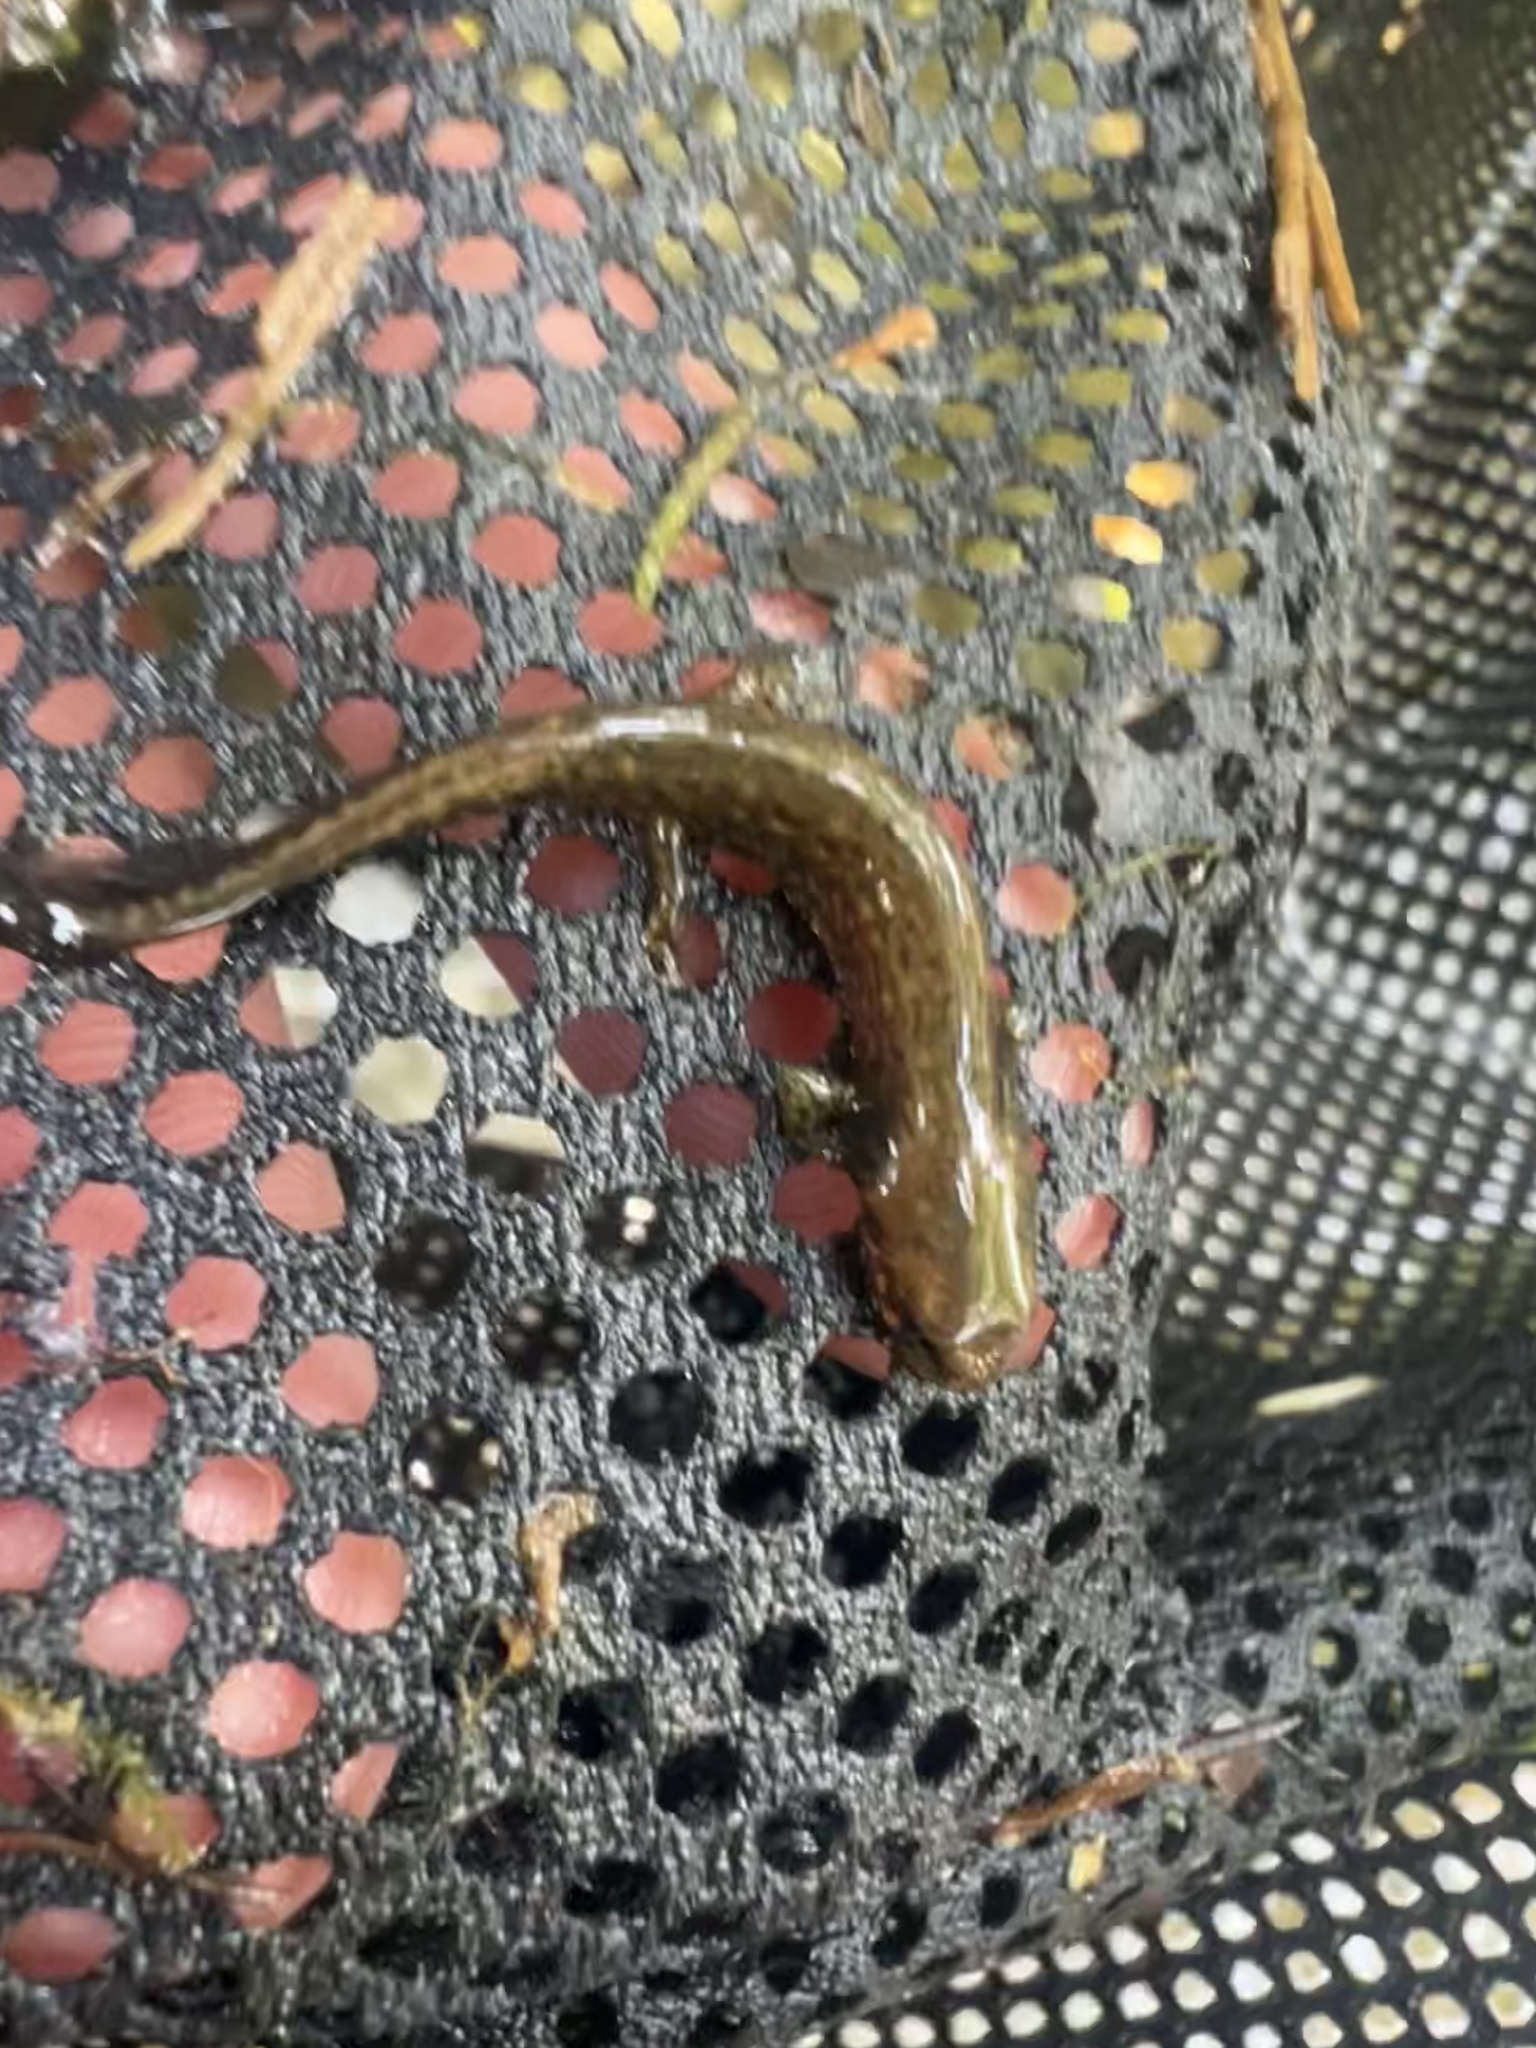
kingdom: Animalia
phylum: Chordata
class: Amphibia
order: Caudata
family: Plethodontidae
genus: Eurycea
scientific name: Eurycea aquatica
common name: Brown-backed salamander
